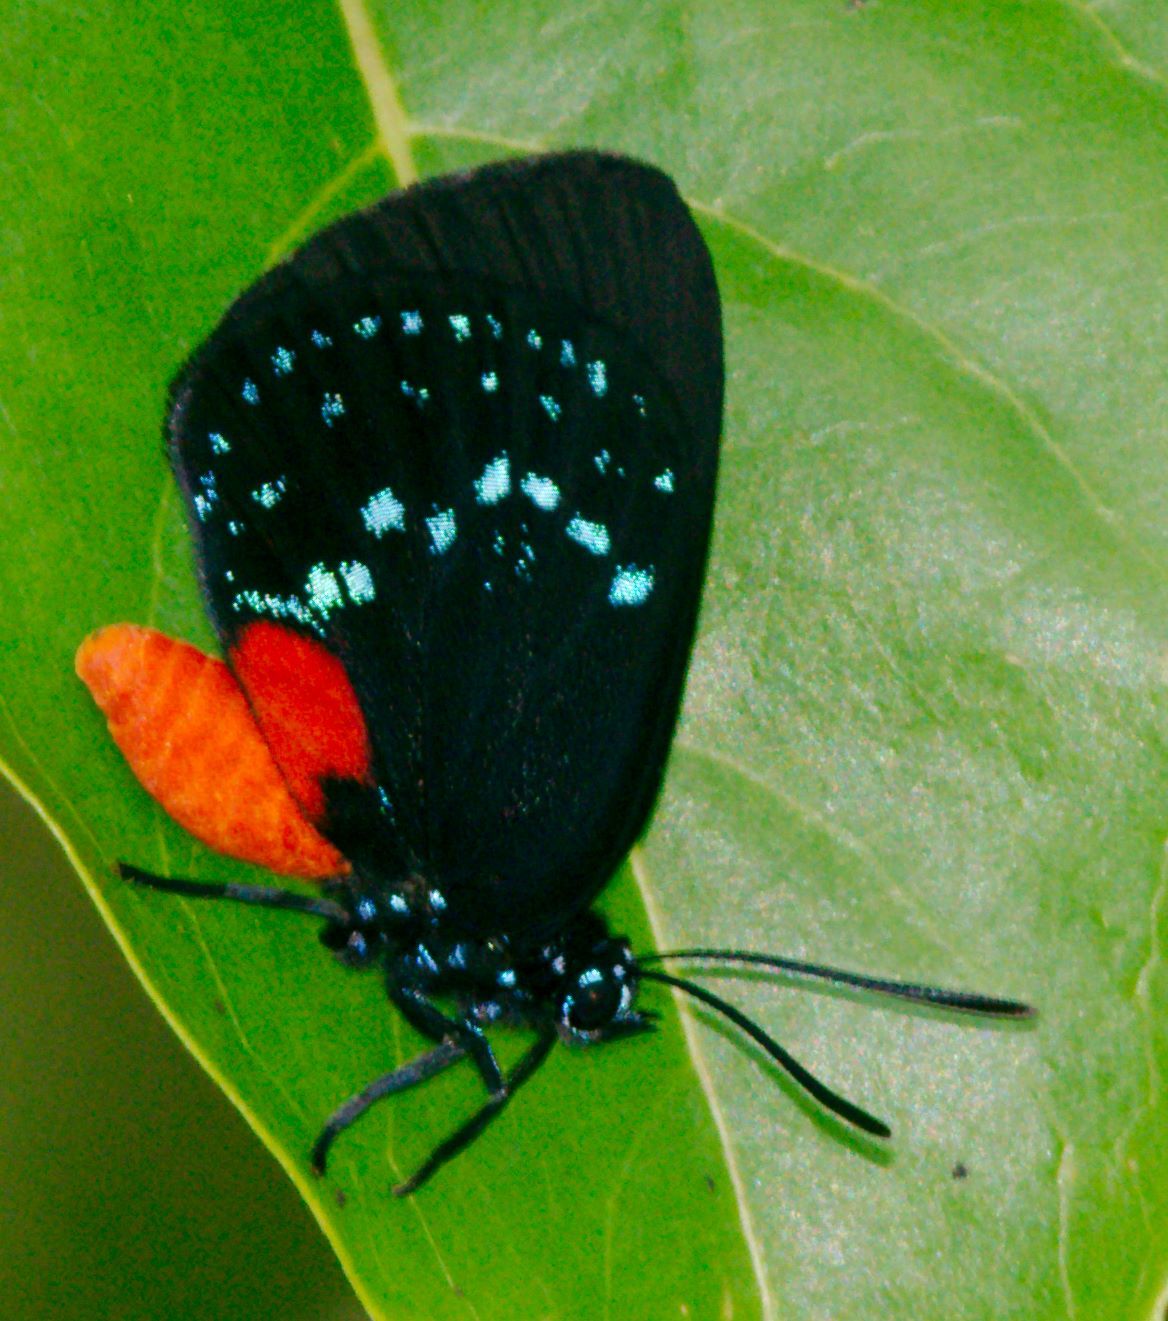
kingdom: Animalia
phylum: Arthropoda
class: Insecta
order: Lepidoptera
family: Lycaenidae
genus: Eumaeus
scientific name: Eumaeus atala
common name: Atala
